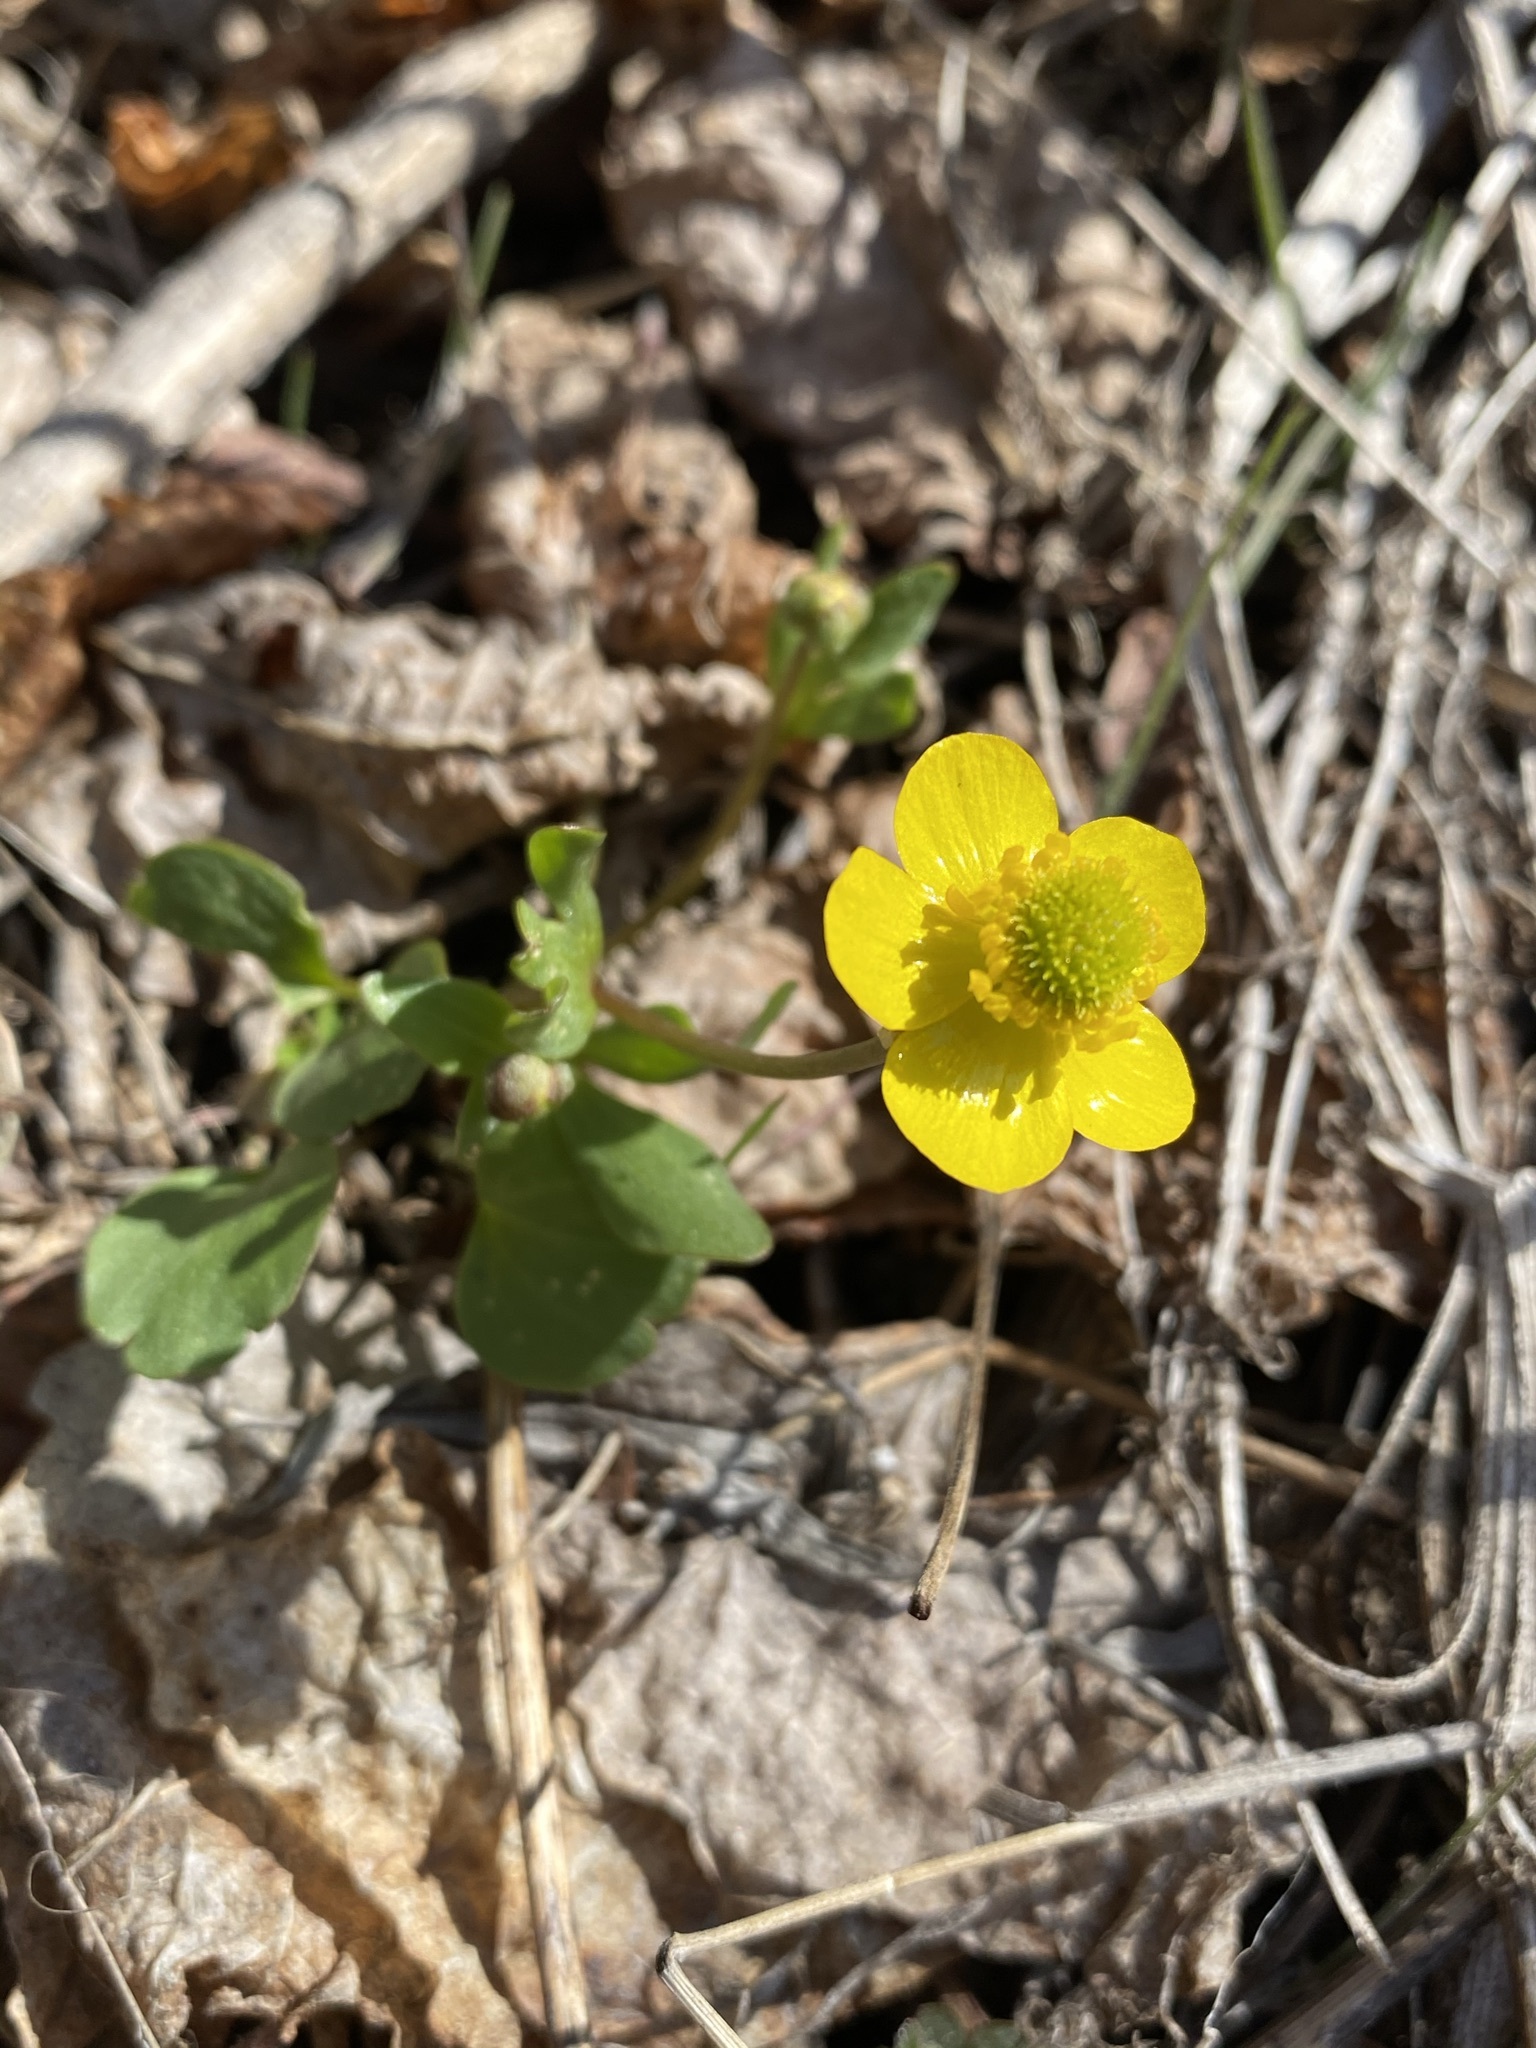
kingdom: Plantae
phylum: Tracheophyta
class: Magnoliopsida
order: Ranunculales
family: Ranunculaceae
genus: Ranunculus
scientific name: Ranunculus glaberrimus
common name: Sagebrush buttercup
